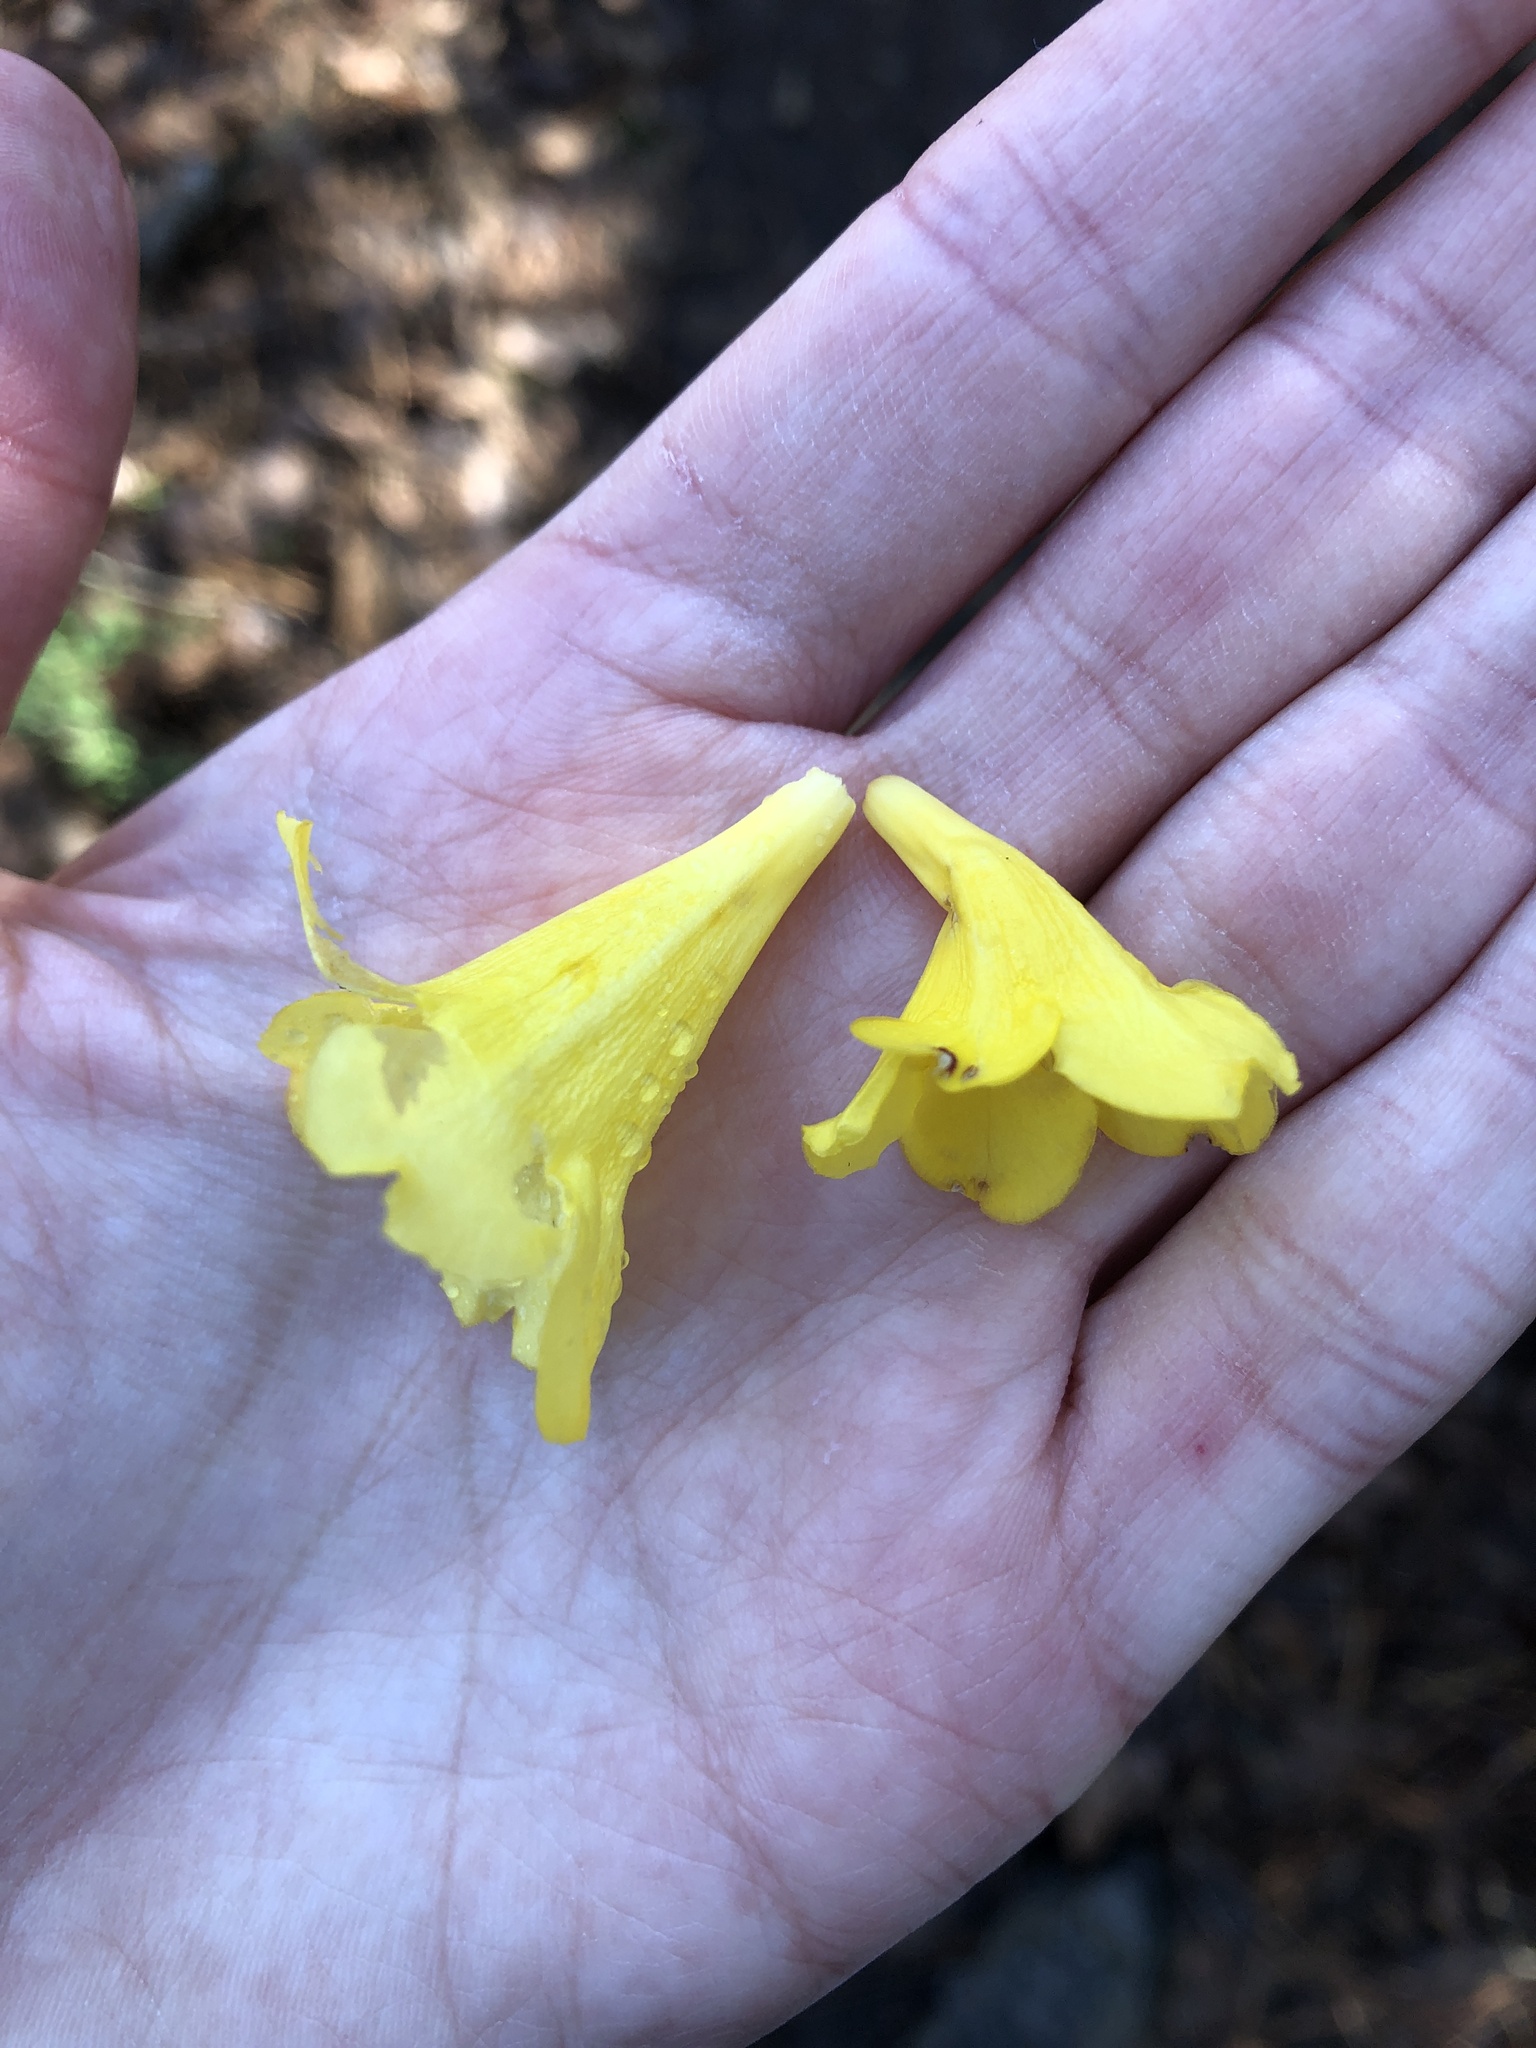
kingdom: Plantae
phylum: Tracheophyta
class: Magnoliopsida
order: Gentianales
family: Gelsemiaceae
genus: Gelsemium
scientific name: Gelsemium sempervirens
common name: Carolina-jasmine
